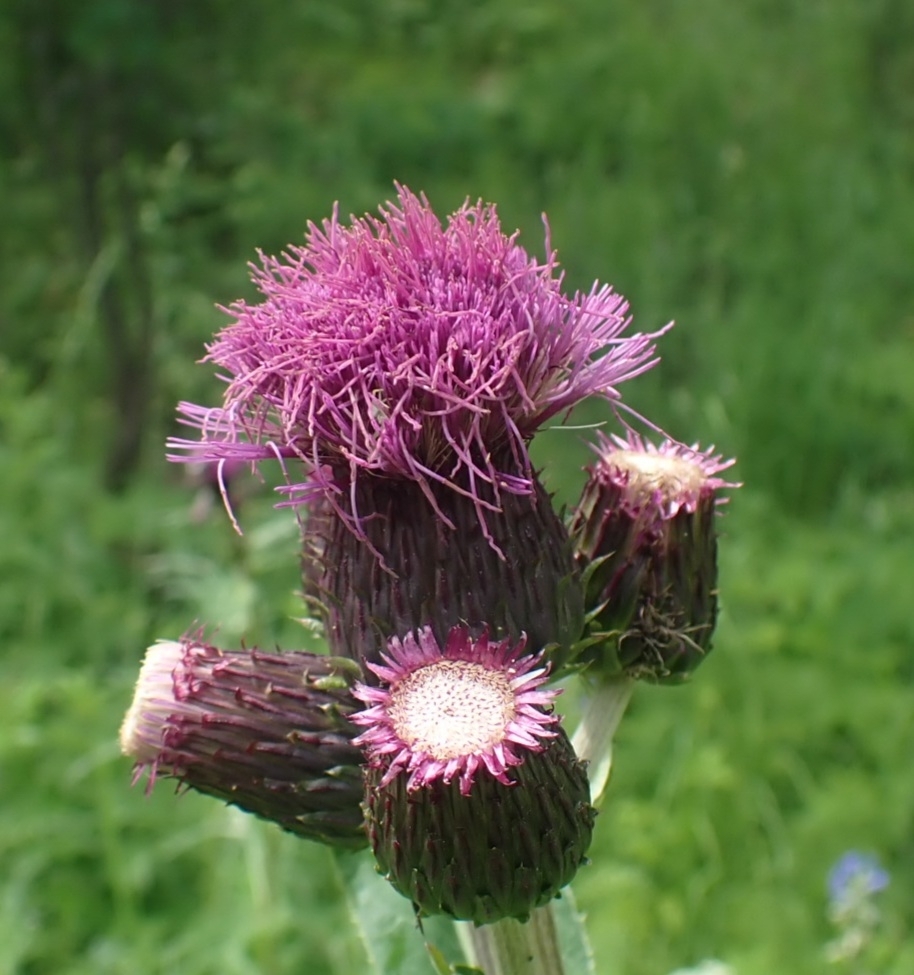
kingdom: Plantae
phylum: Tracheophyta
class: Magnoliopsida
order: Asterales
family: Asteraceae
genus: Cirsium
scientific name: Cirsium helenioides
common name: Melancholy thistle
